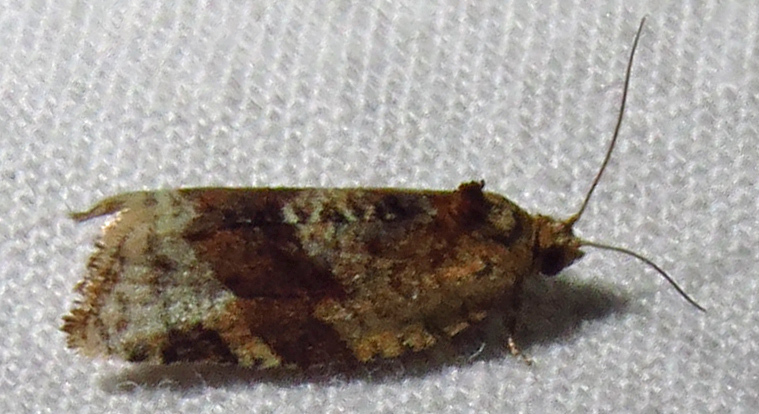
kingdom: Animalia
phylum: Arthropoda
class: Insecta
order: Lepidoptera
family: Tortricidae
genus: Argyrotaenia
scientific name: Argyrotaenia velutinana
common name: Red-banded leafroller moth
